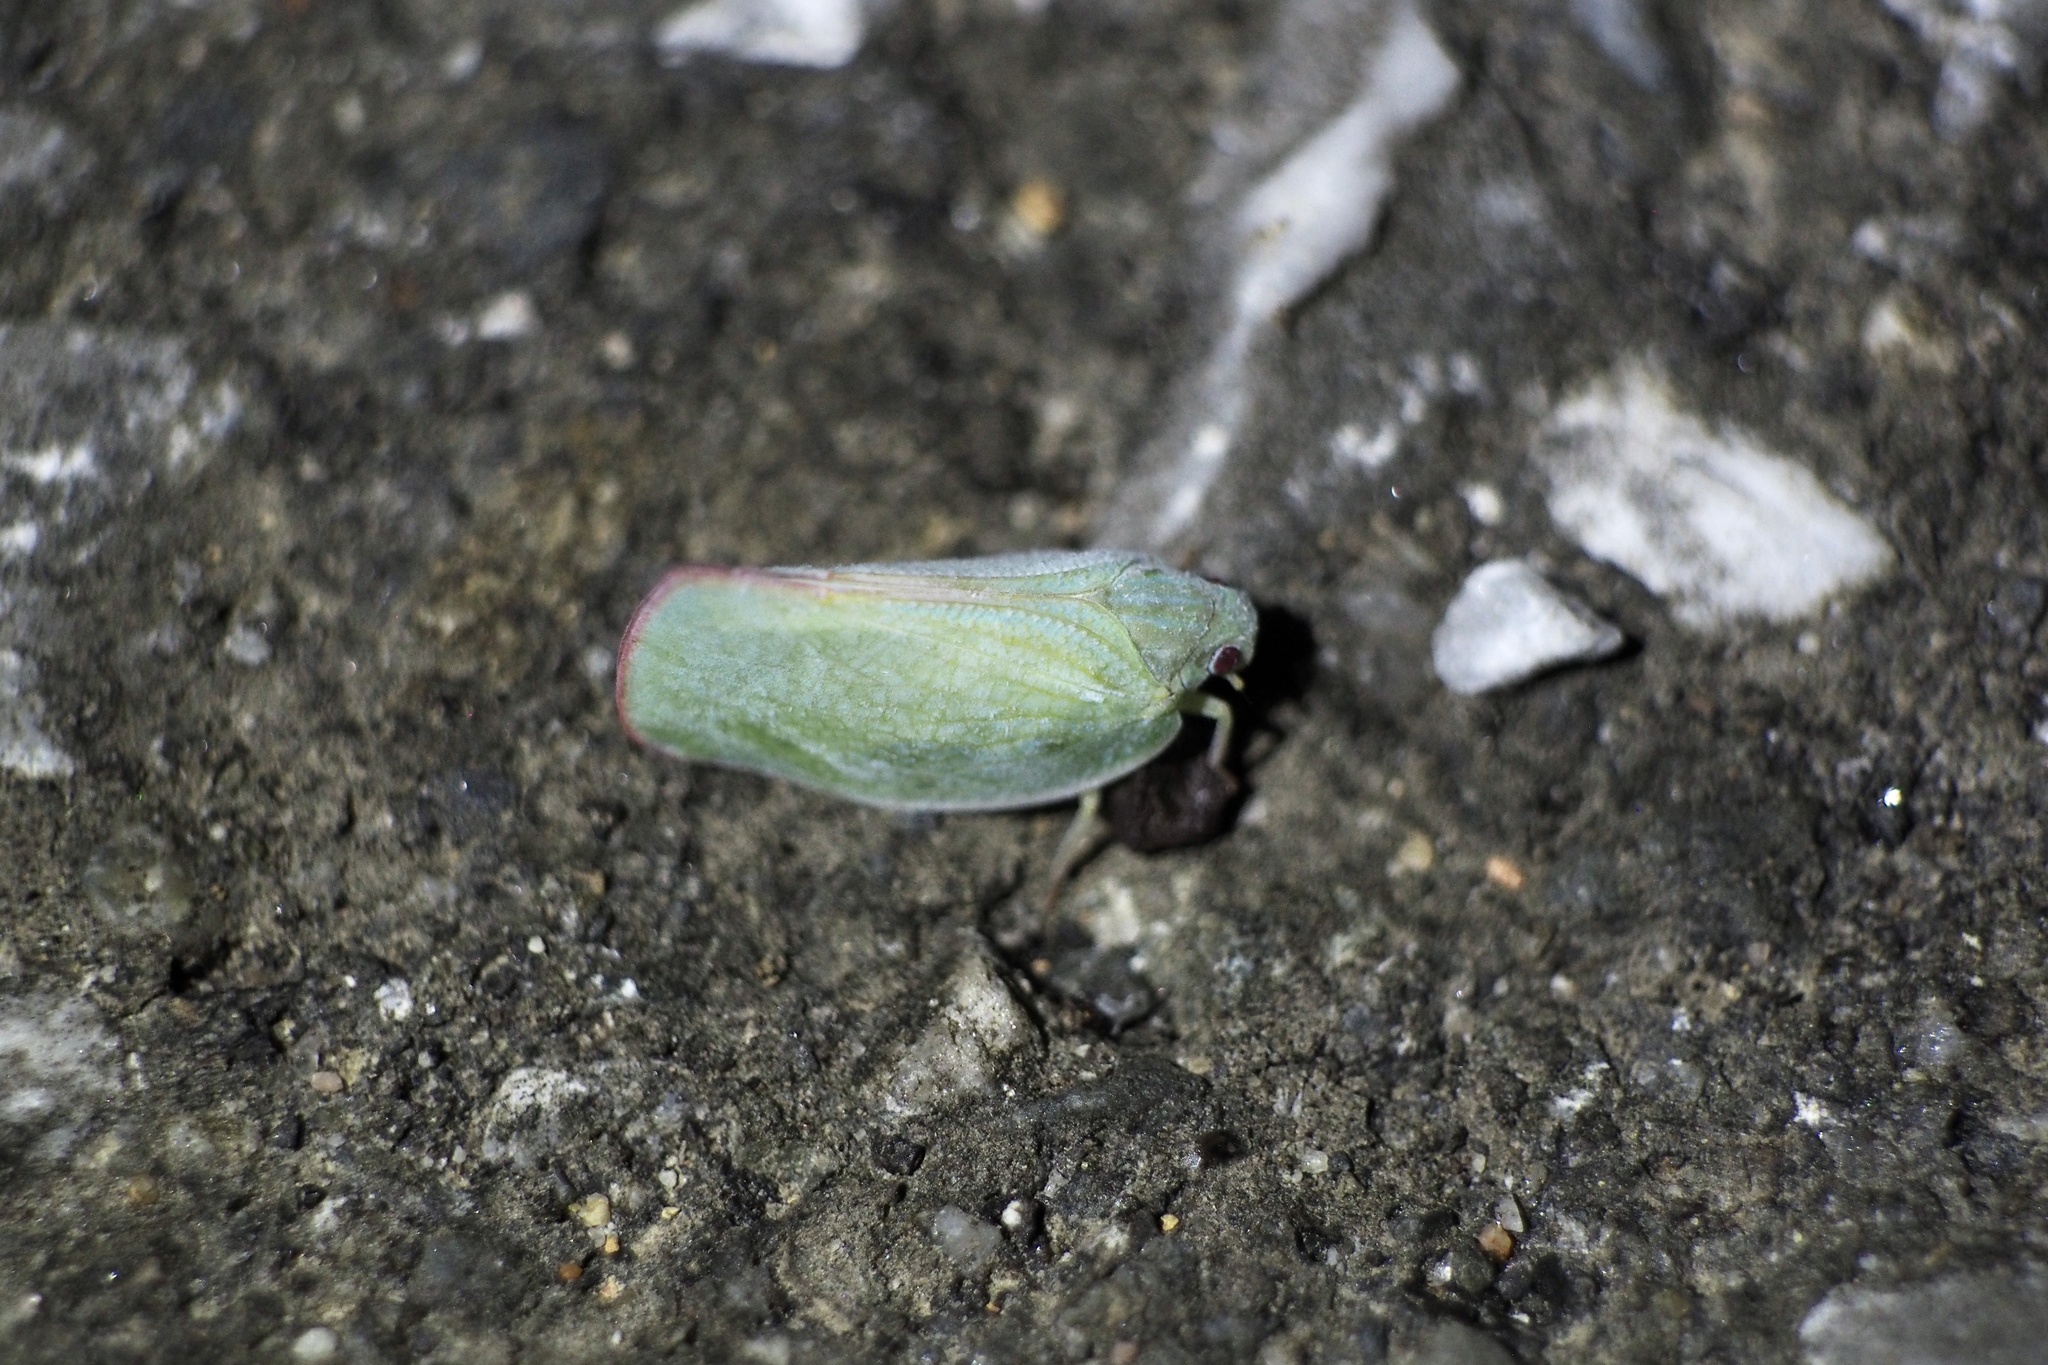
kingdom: Animalia
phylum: Arthropoda
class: Insecta
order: Hemiptera
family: Flatidae
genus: Geisha
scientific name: Geisha distinctissima
